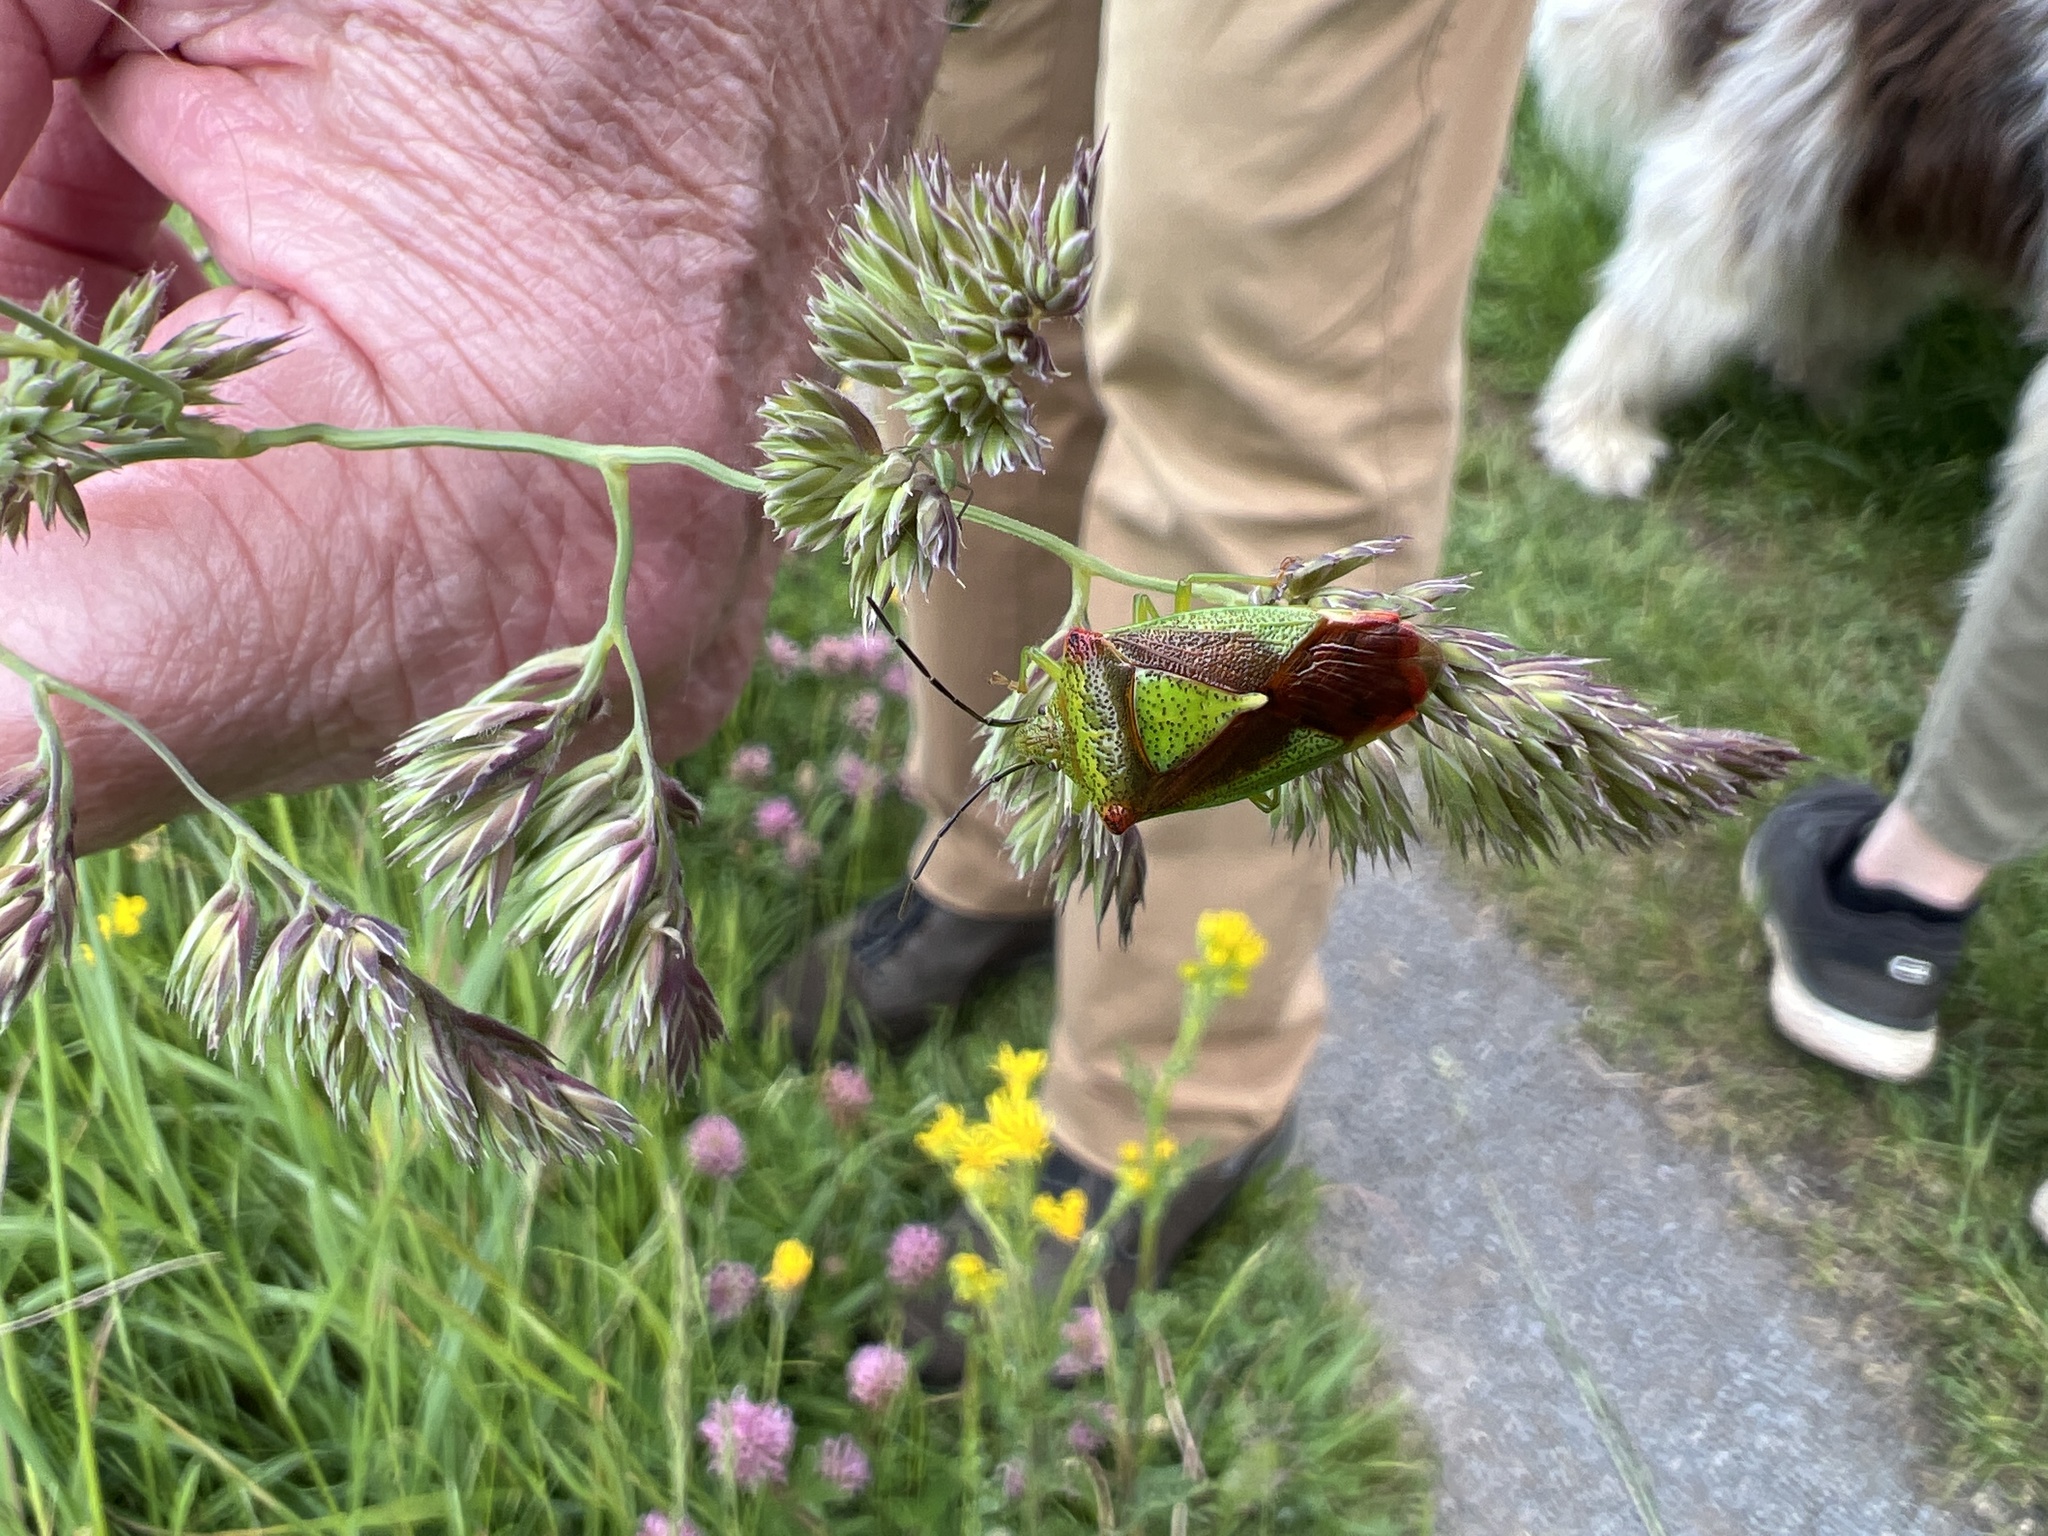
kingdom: Animalia
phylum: Arthropoda
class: Insecta
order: Hemiptera
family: Acanthosomatidae
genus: Acanthosoma
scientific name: Acanthosoma haemorrhoidale
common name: Hawthorn shieldbug
